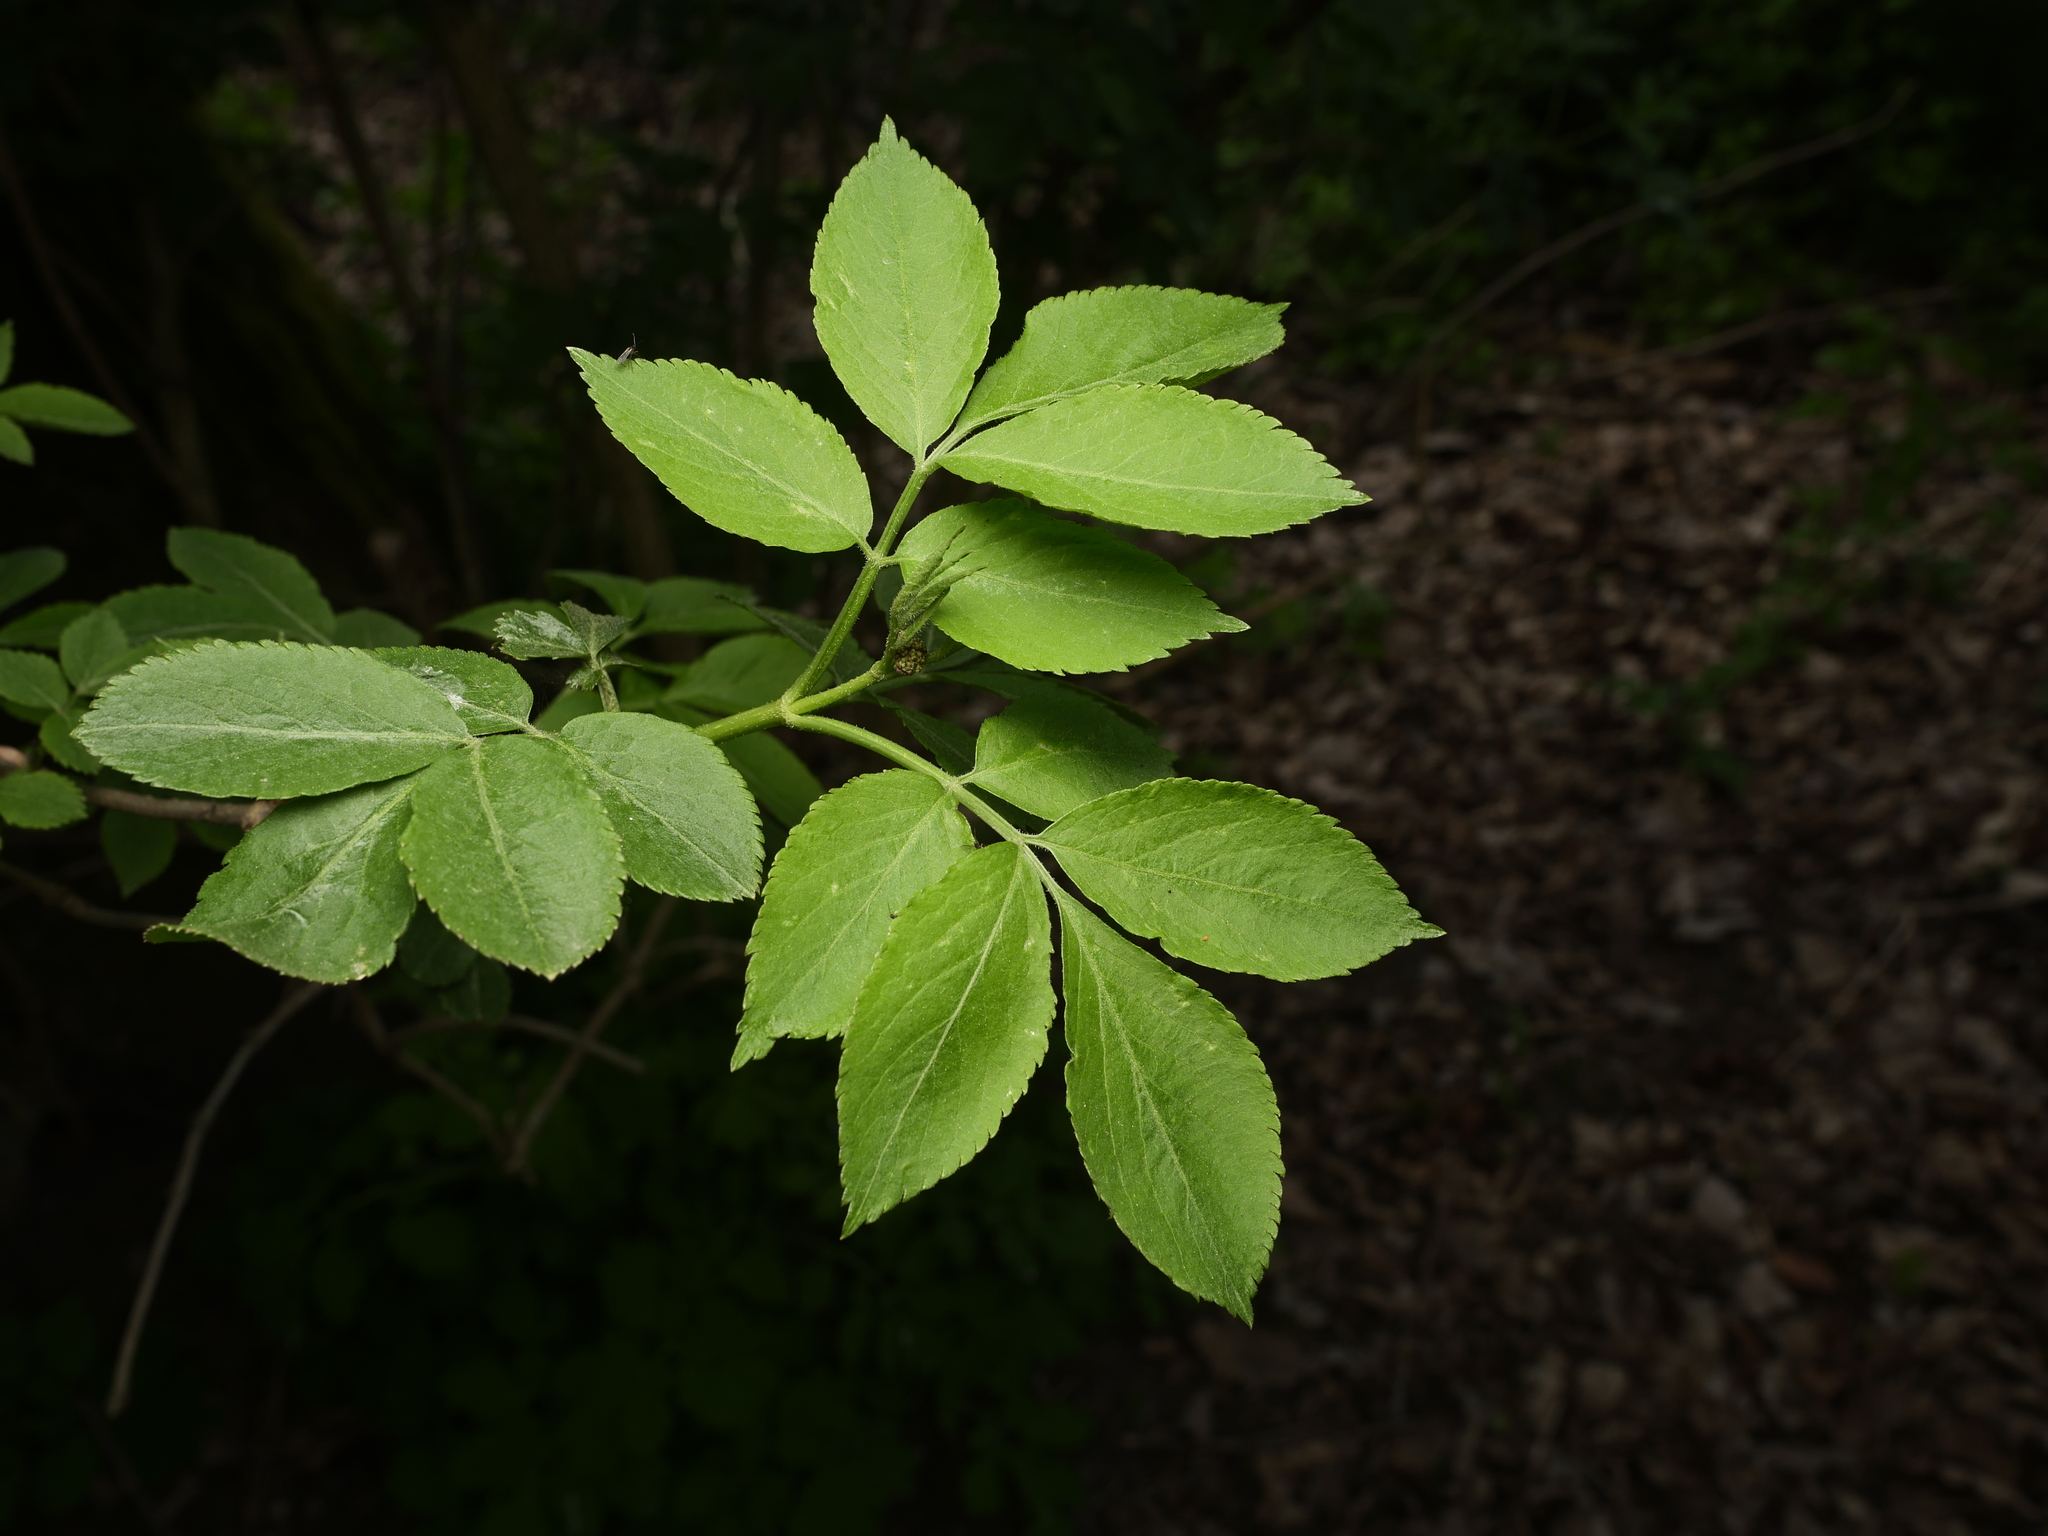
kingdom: Plantae
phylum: Tracheophyta
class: Magnoliopsida
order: Dipsacales
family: Viburnaceae
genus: Sambucus
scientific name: Sambucus nigra
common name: Elder
